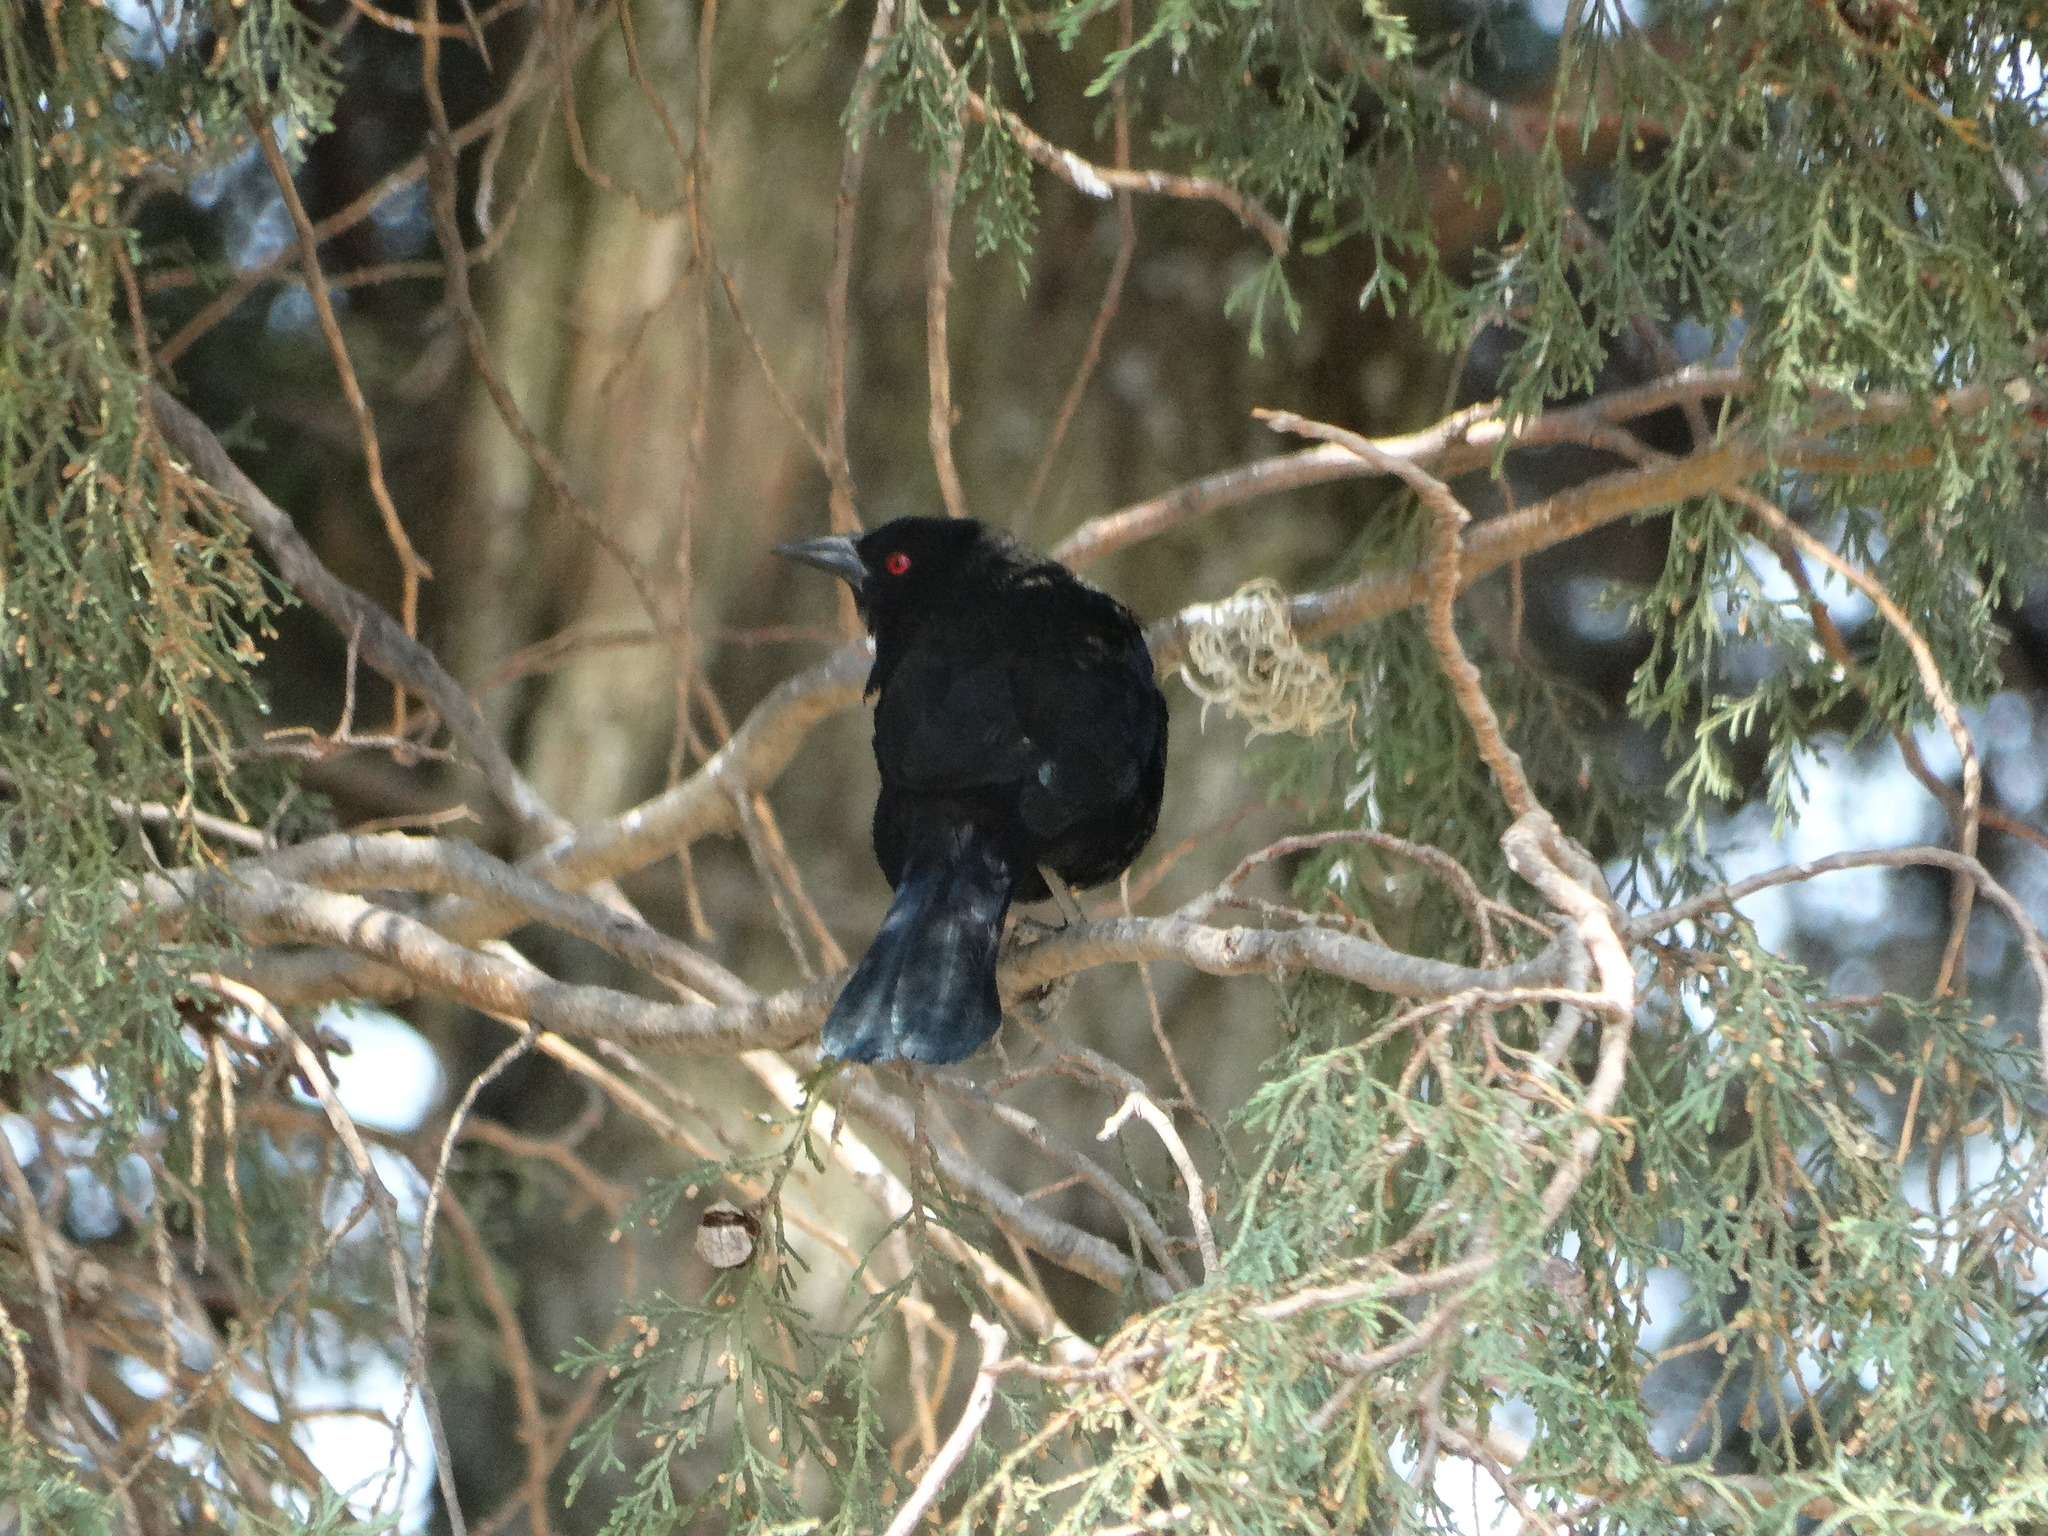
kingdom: Animalia
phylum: Chordata
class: Aves
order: Passeriformes
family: Icteridae
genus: Molothrus
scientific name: Molothrus aeneus
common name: Bronzed cowbird
